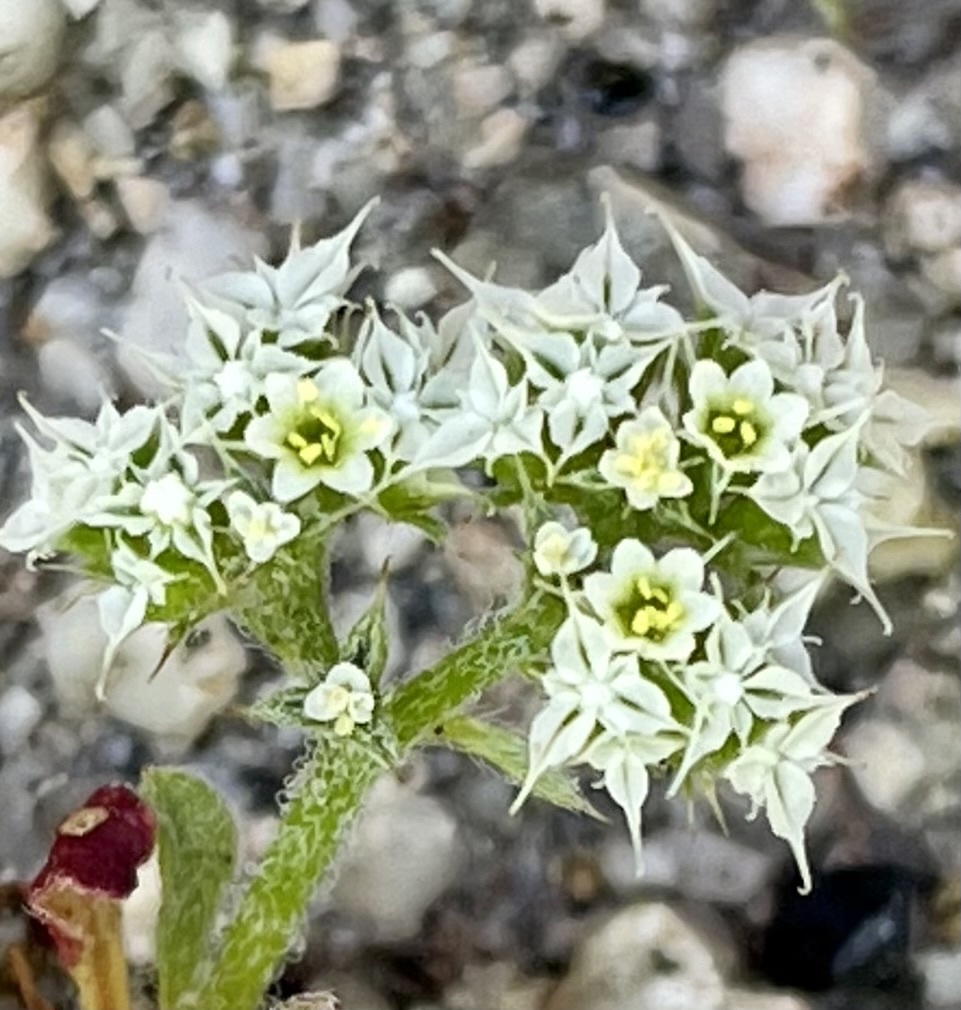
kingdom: Plantae
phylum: Tracheophyta
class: Magnoliopsida
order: Caryophyllales
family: Polygonaceae
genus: Chorizanthe
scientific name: Chorizanthe diffusa
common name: Diffuse spineflower
